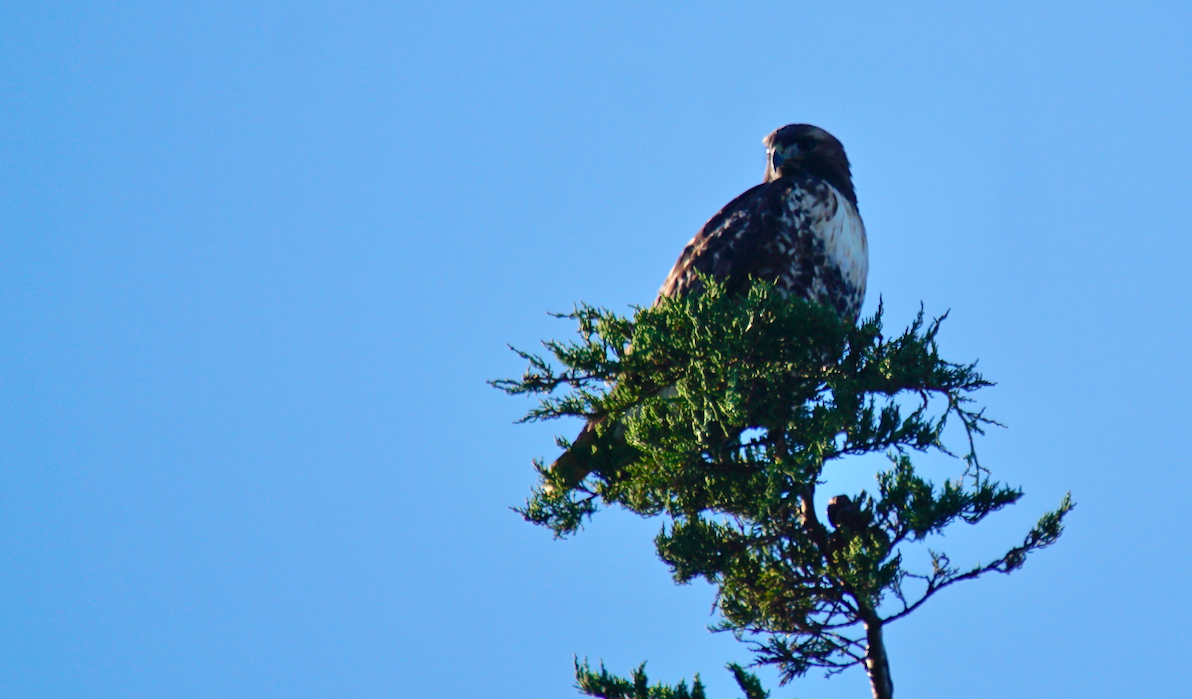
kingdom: Animalia
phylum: Chordata
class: Aves
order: Accipitriformes
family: Accipitridae
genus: Buteo
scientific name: Buteo jamaicensis
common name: Red-tailed hawk
